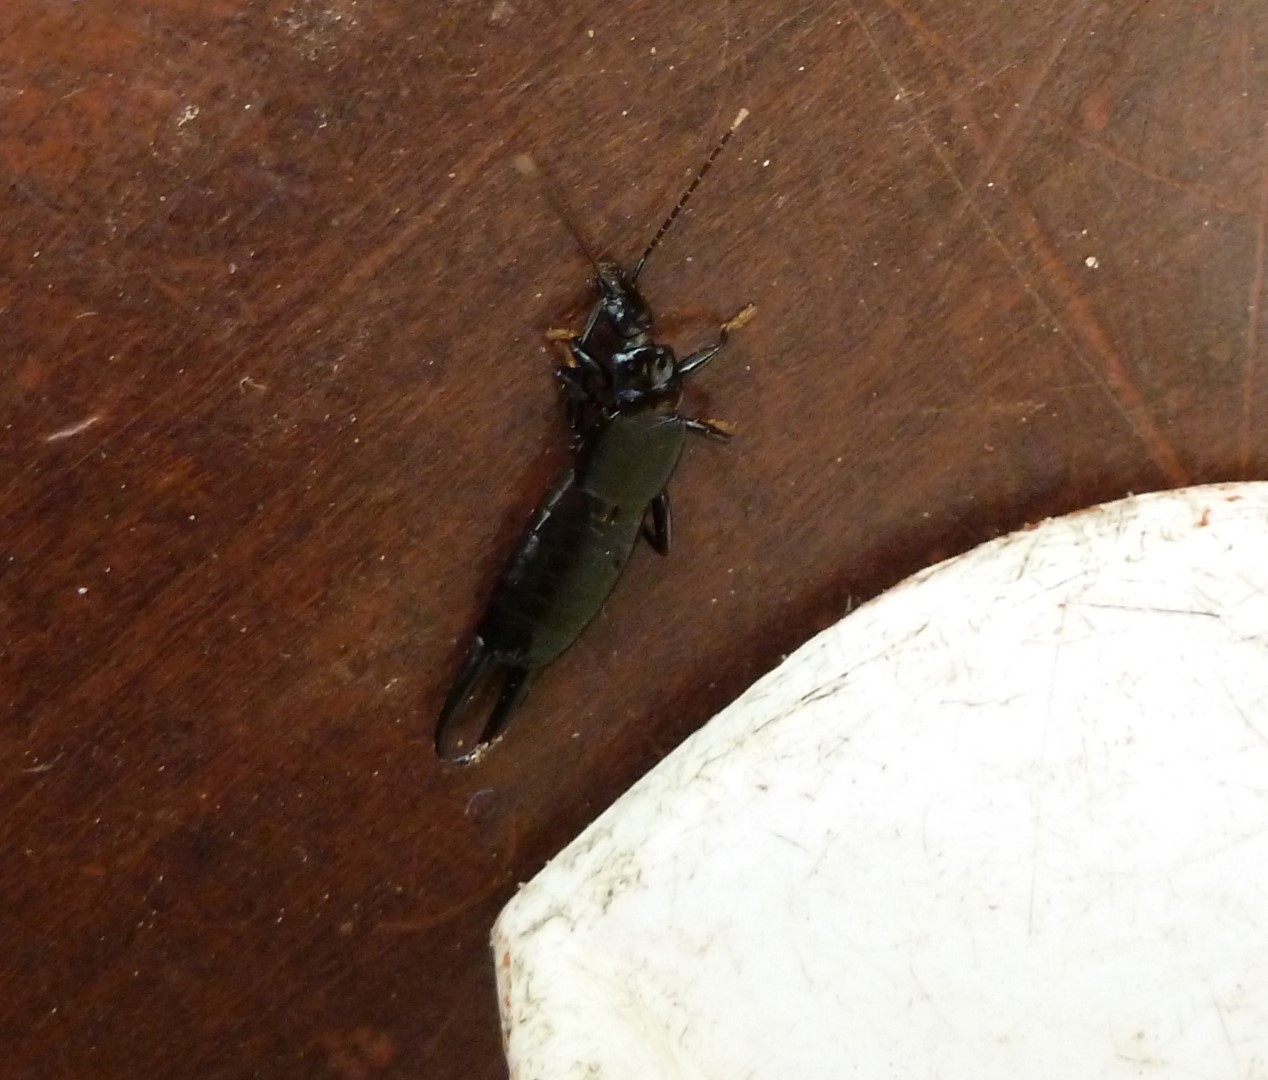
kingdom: Animalia
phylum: Arthropoda
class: Insecta
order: Dermaptera
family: Chelisochidae
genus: Chelisoches
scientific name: Chelisoches morio
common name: Black earwig
